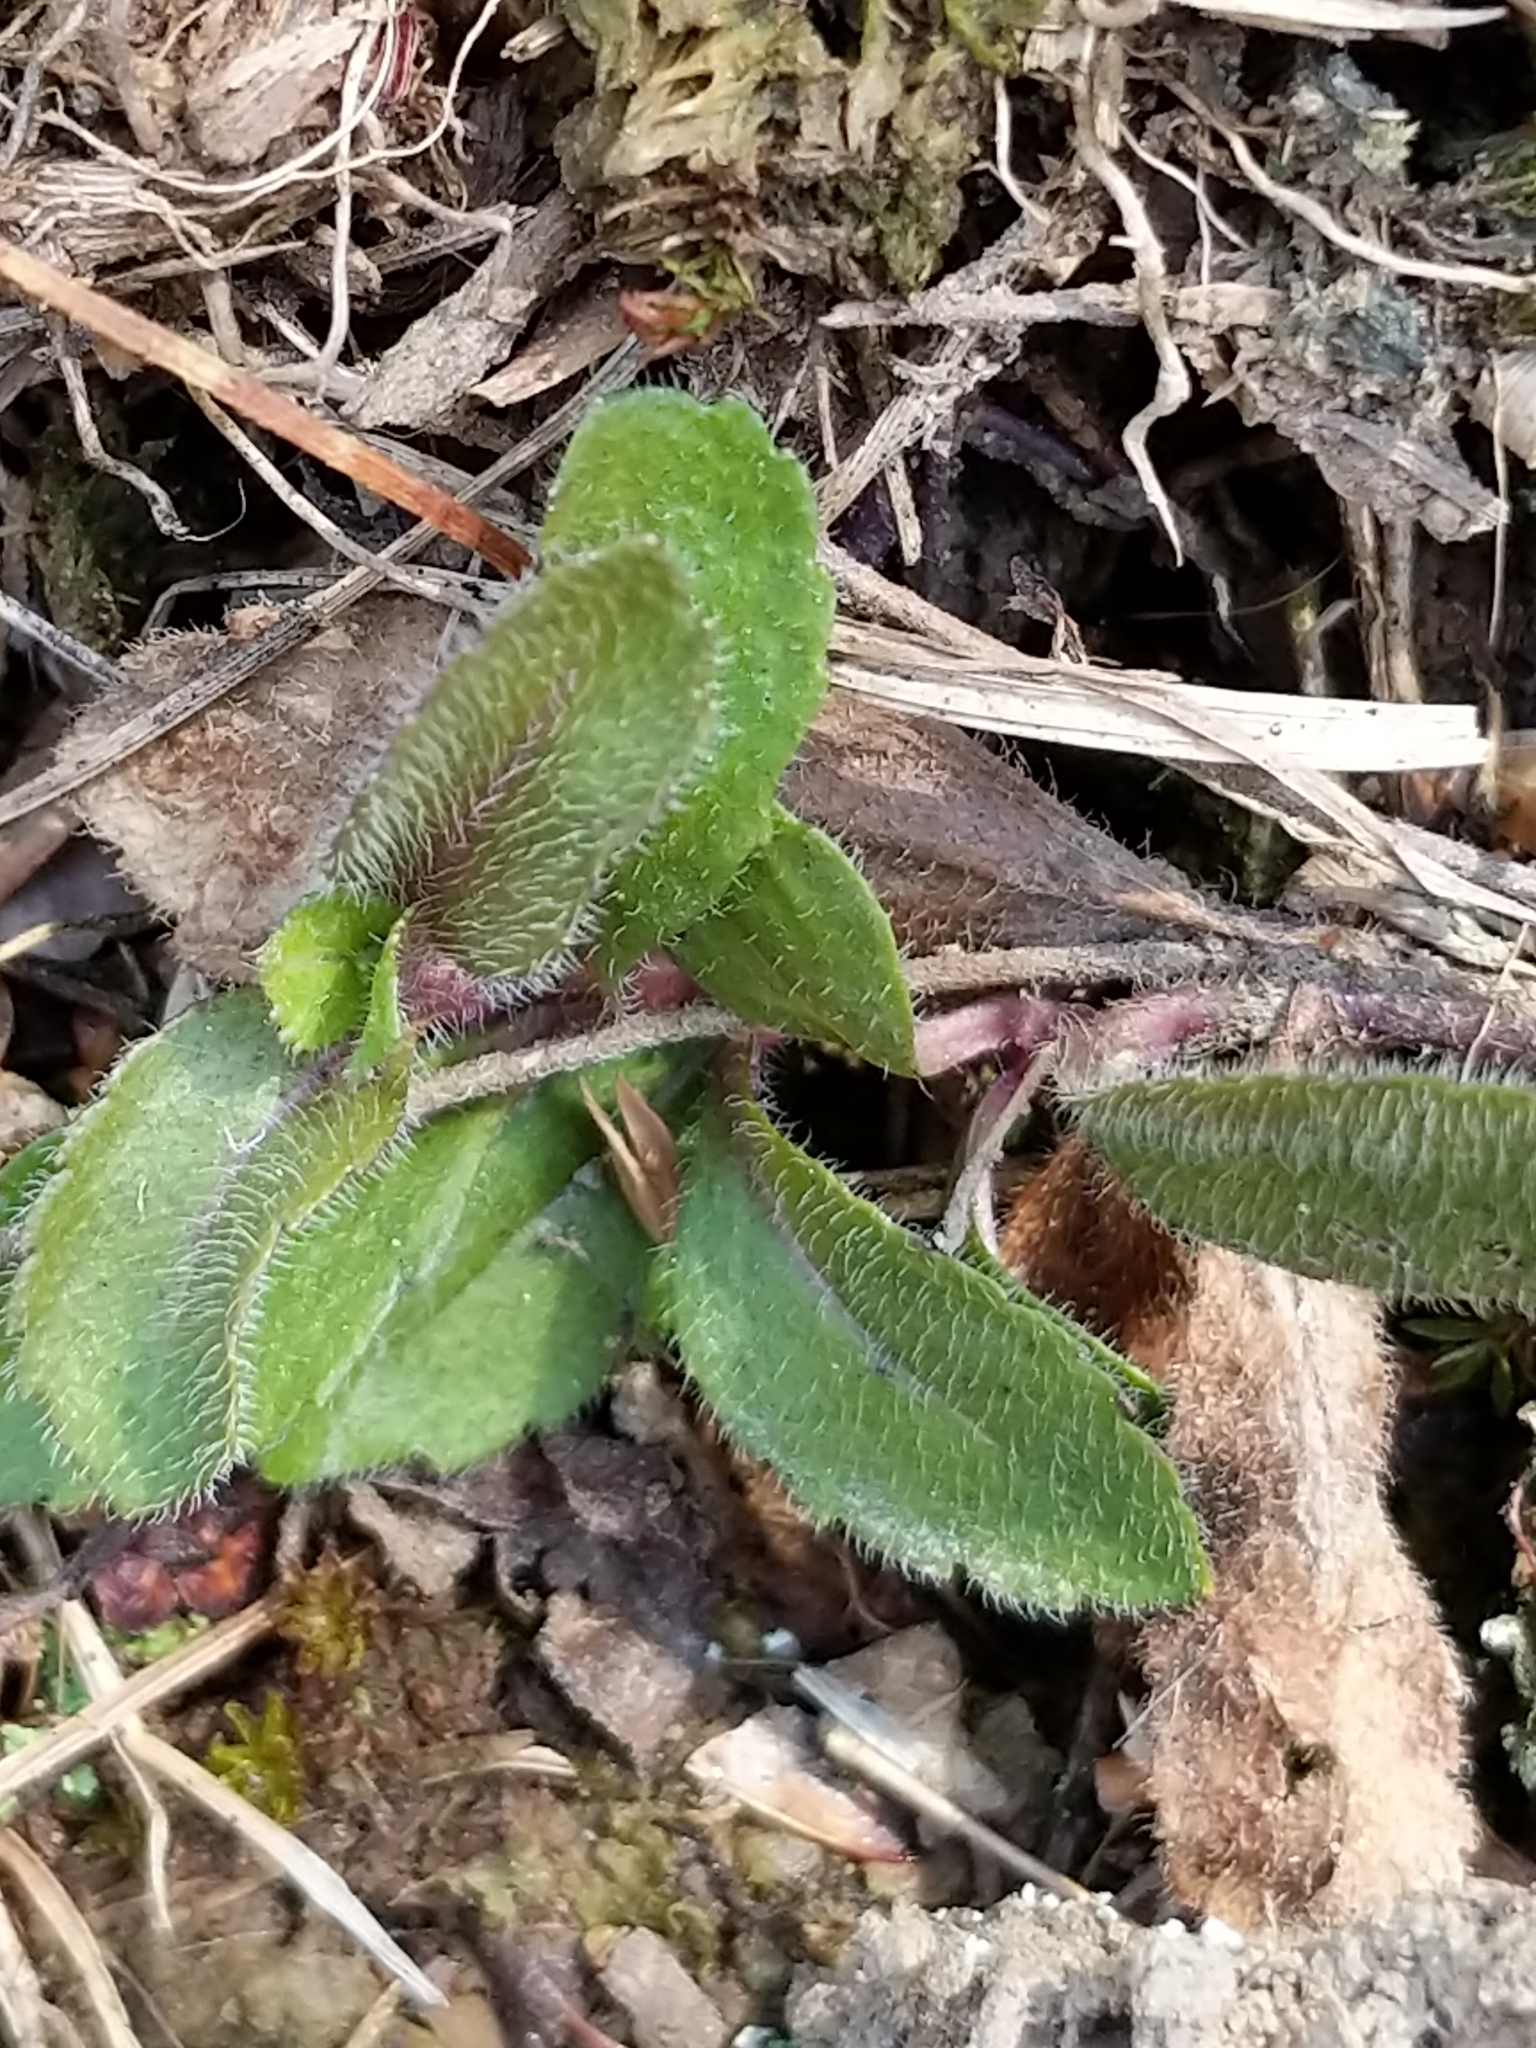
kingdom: Plantae
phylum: Tracheophyta
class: Magnoliopsida
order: Lamiales
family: Plantaginaceae
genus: Veronica
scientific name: Veronica officinalis
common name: Common speedwell
